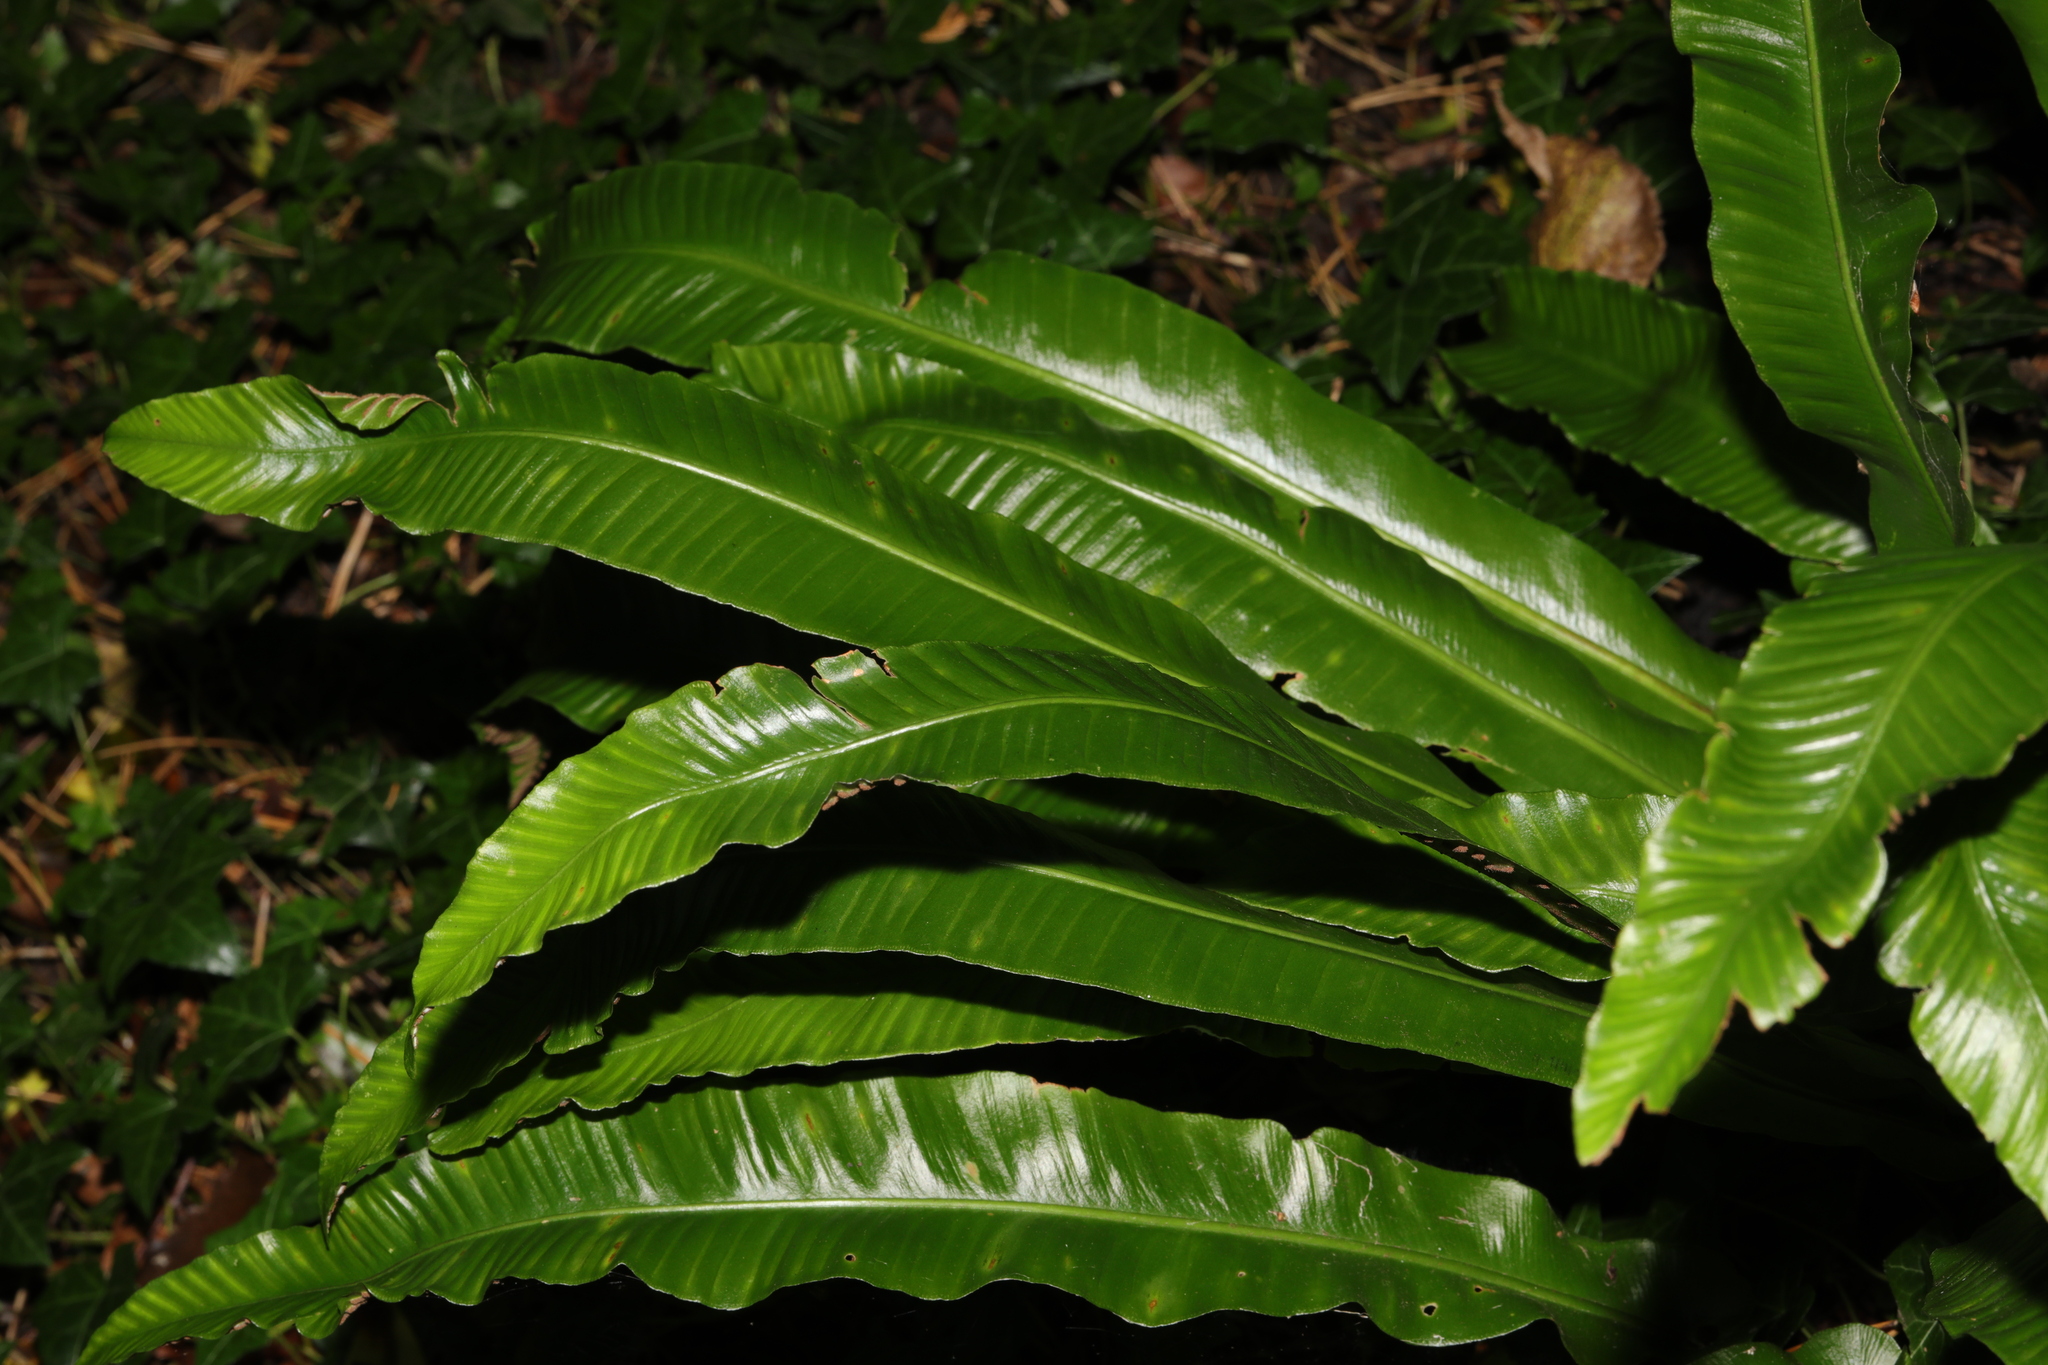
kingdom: Plantae
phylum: Tracheophyta
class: Polypodiopsida
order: Polypodiales
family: Aspleniaceae
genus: Asplenium
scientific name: Asplenium scolopendrium
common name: Hart's-tongue fern
